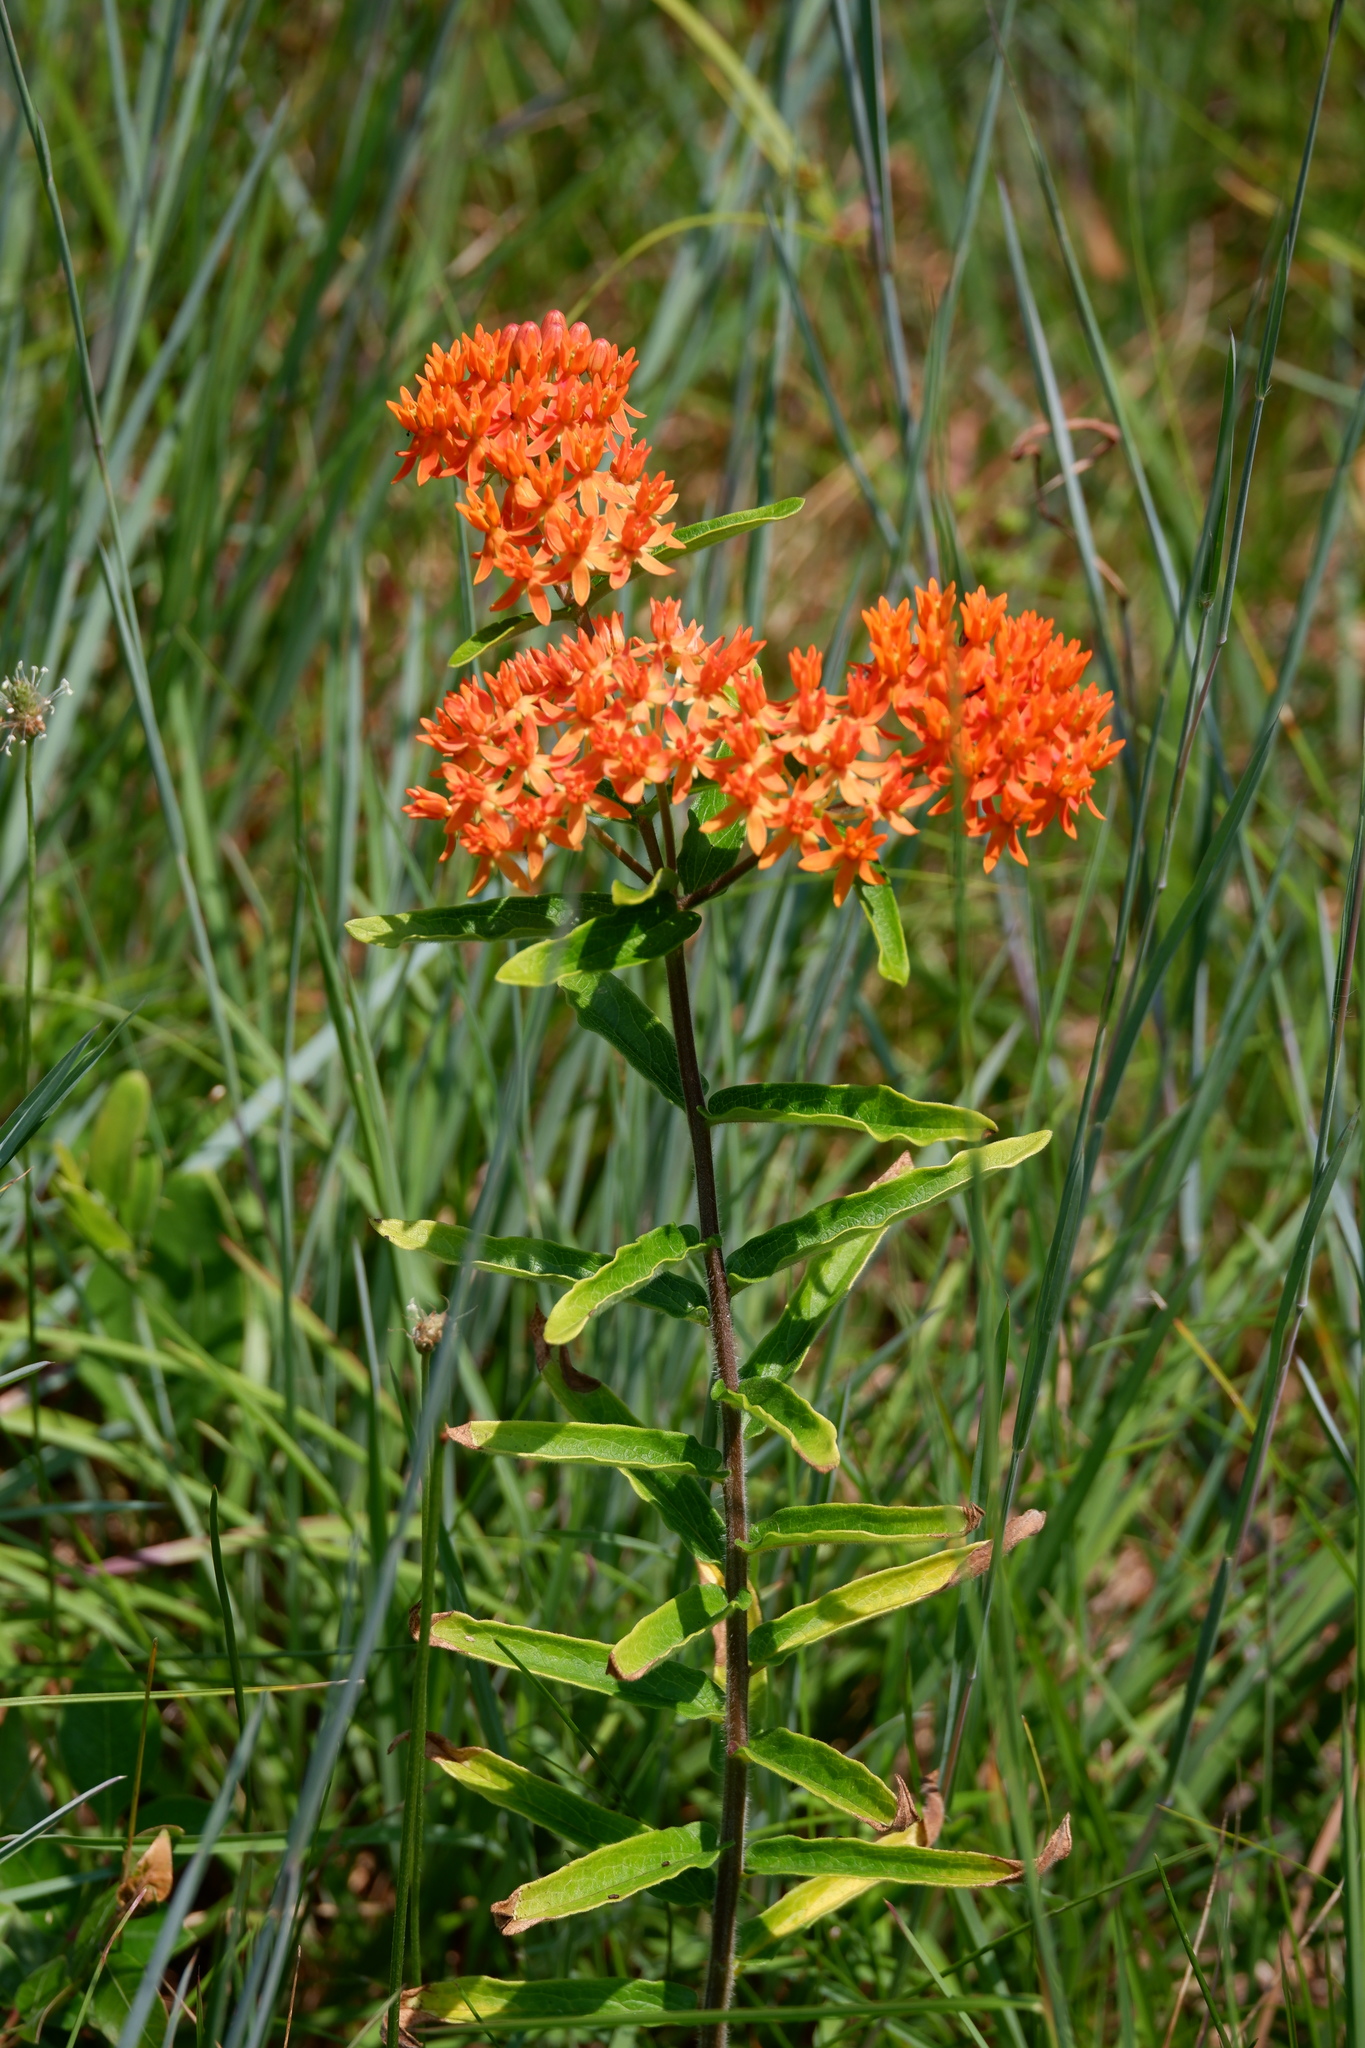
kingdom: Plantae
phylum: Tracheophyta
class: Magnoliopsida
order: Gentianales
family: Apocynaceae
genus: Asclepias
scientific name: Asclepias tuberosa
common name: Butterfly milkweed
